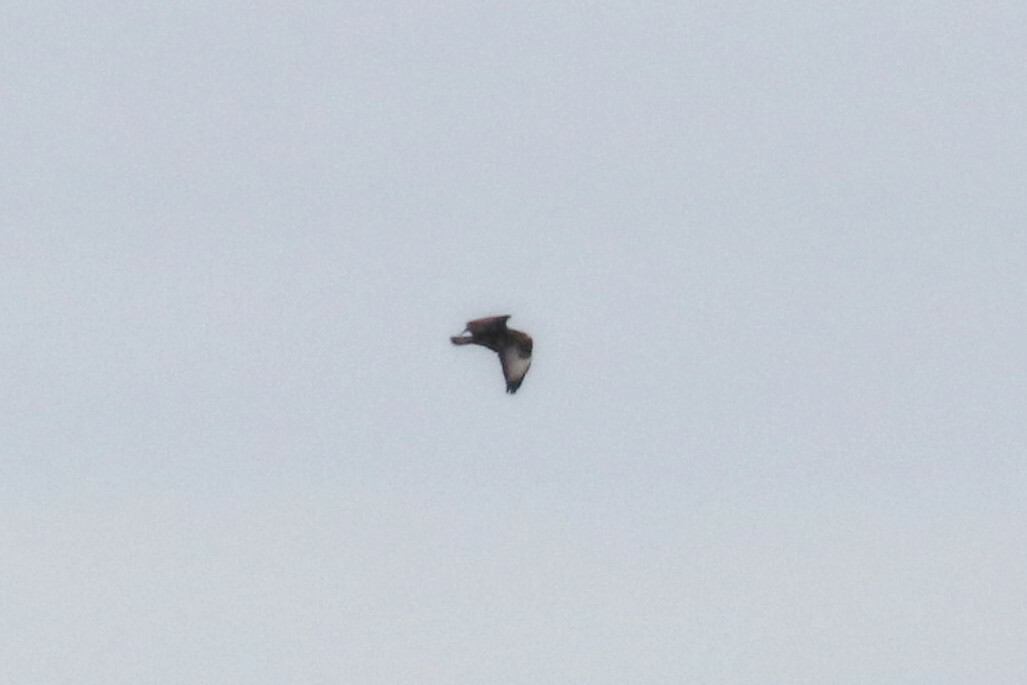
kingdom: Animalia
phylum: Chordata
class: Aves
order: Accipitriformes
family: Accipitridae
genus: Buteo
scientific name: Buteo buteo
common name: Common buzzard
